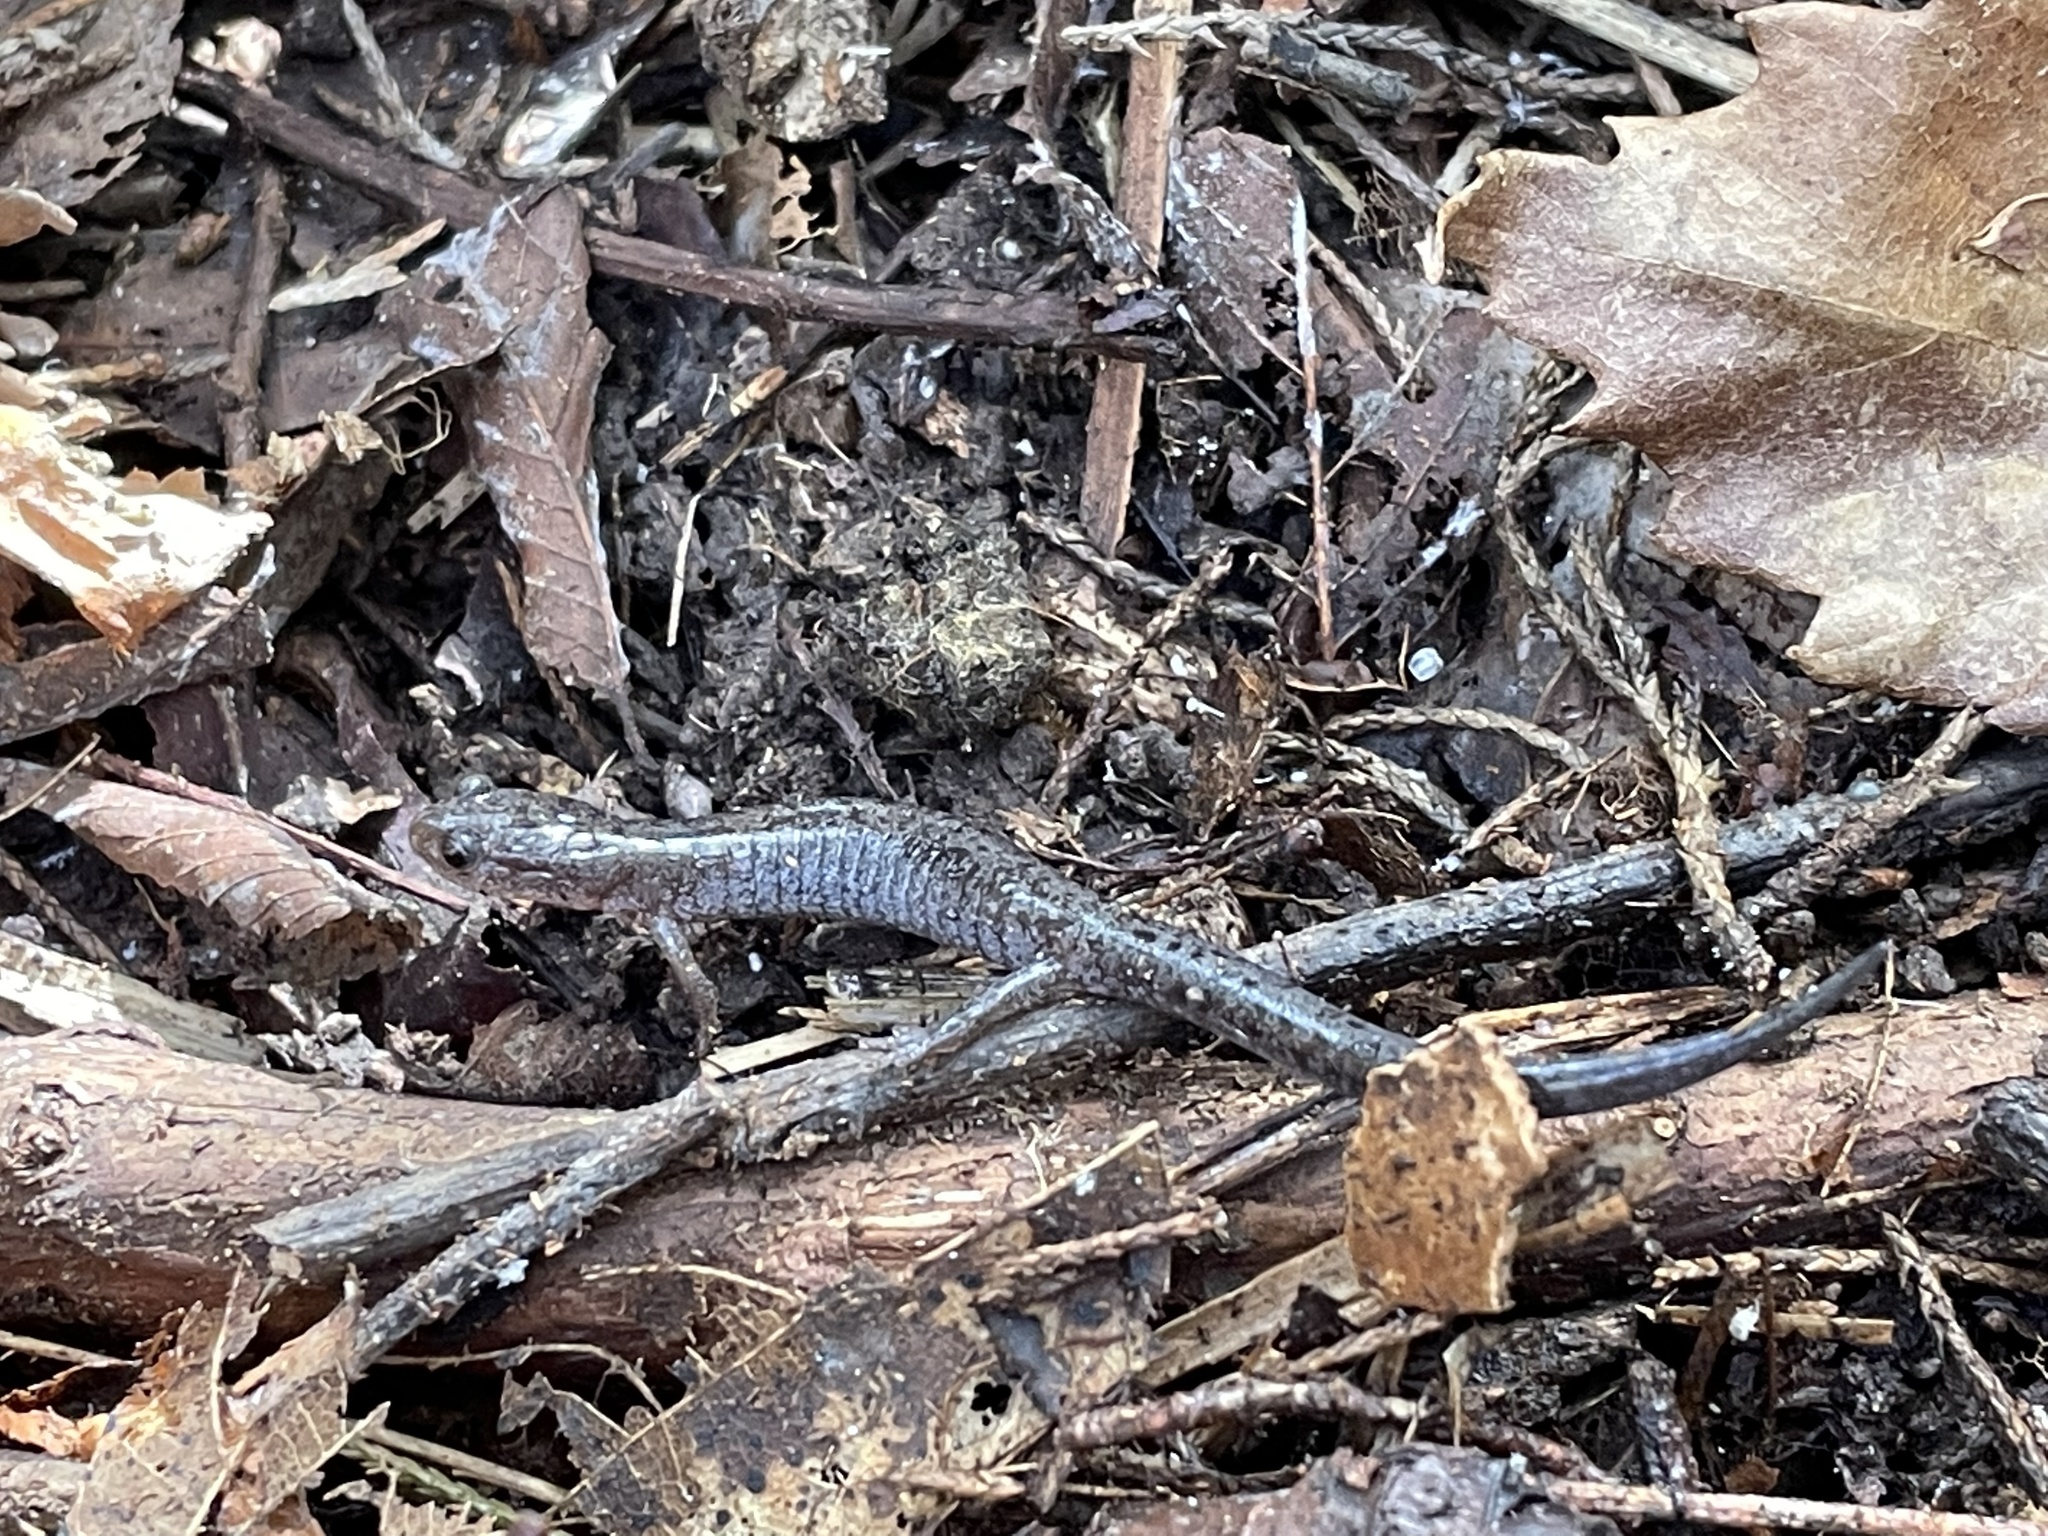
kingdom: Animalia
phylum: Chordata
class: Amphibia
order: Caudata
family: Plethodontidae
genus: Plethodon
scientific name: Plethodon dorsalis
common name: Northern zigzag salamander
